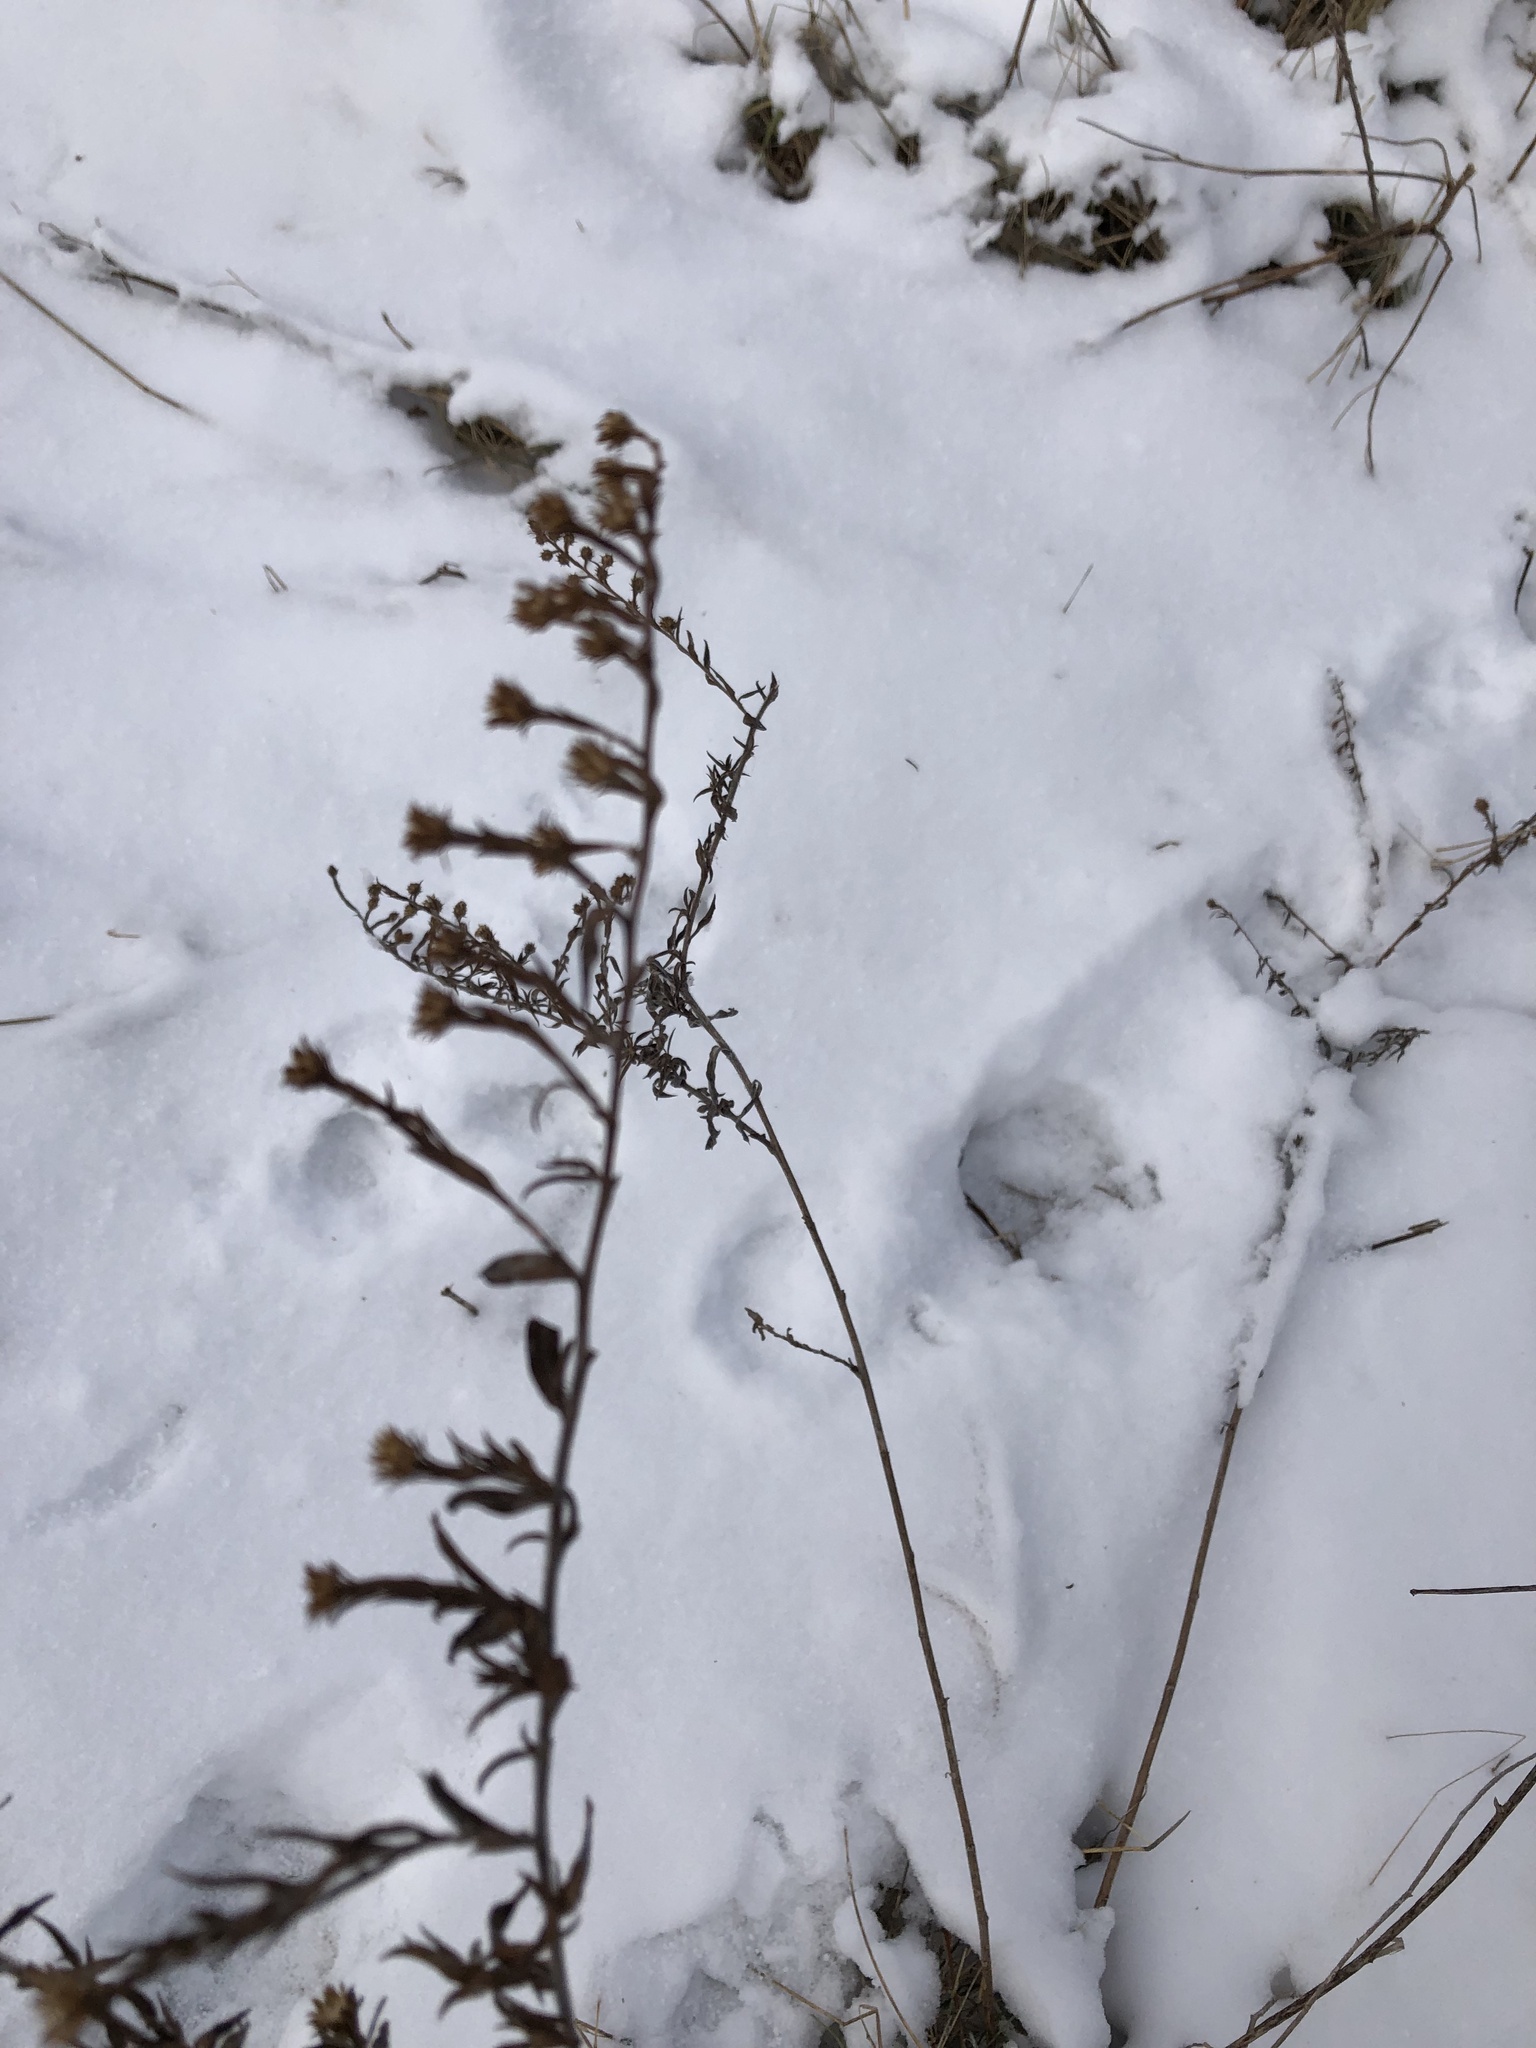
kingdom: Plantae
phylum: Tracheophyta
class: Magnoliopsida
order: Asterales
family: Asteraceae
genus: Artemisia
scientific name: Artemisia vulgaris
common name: Mugwort
